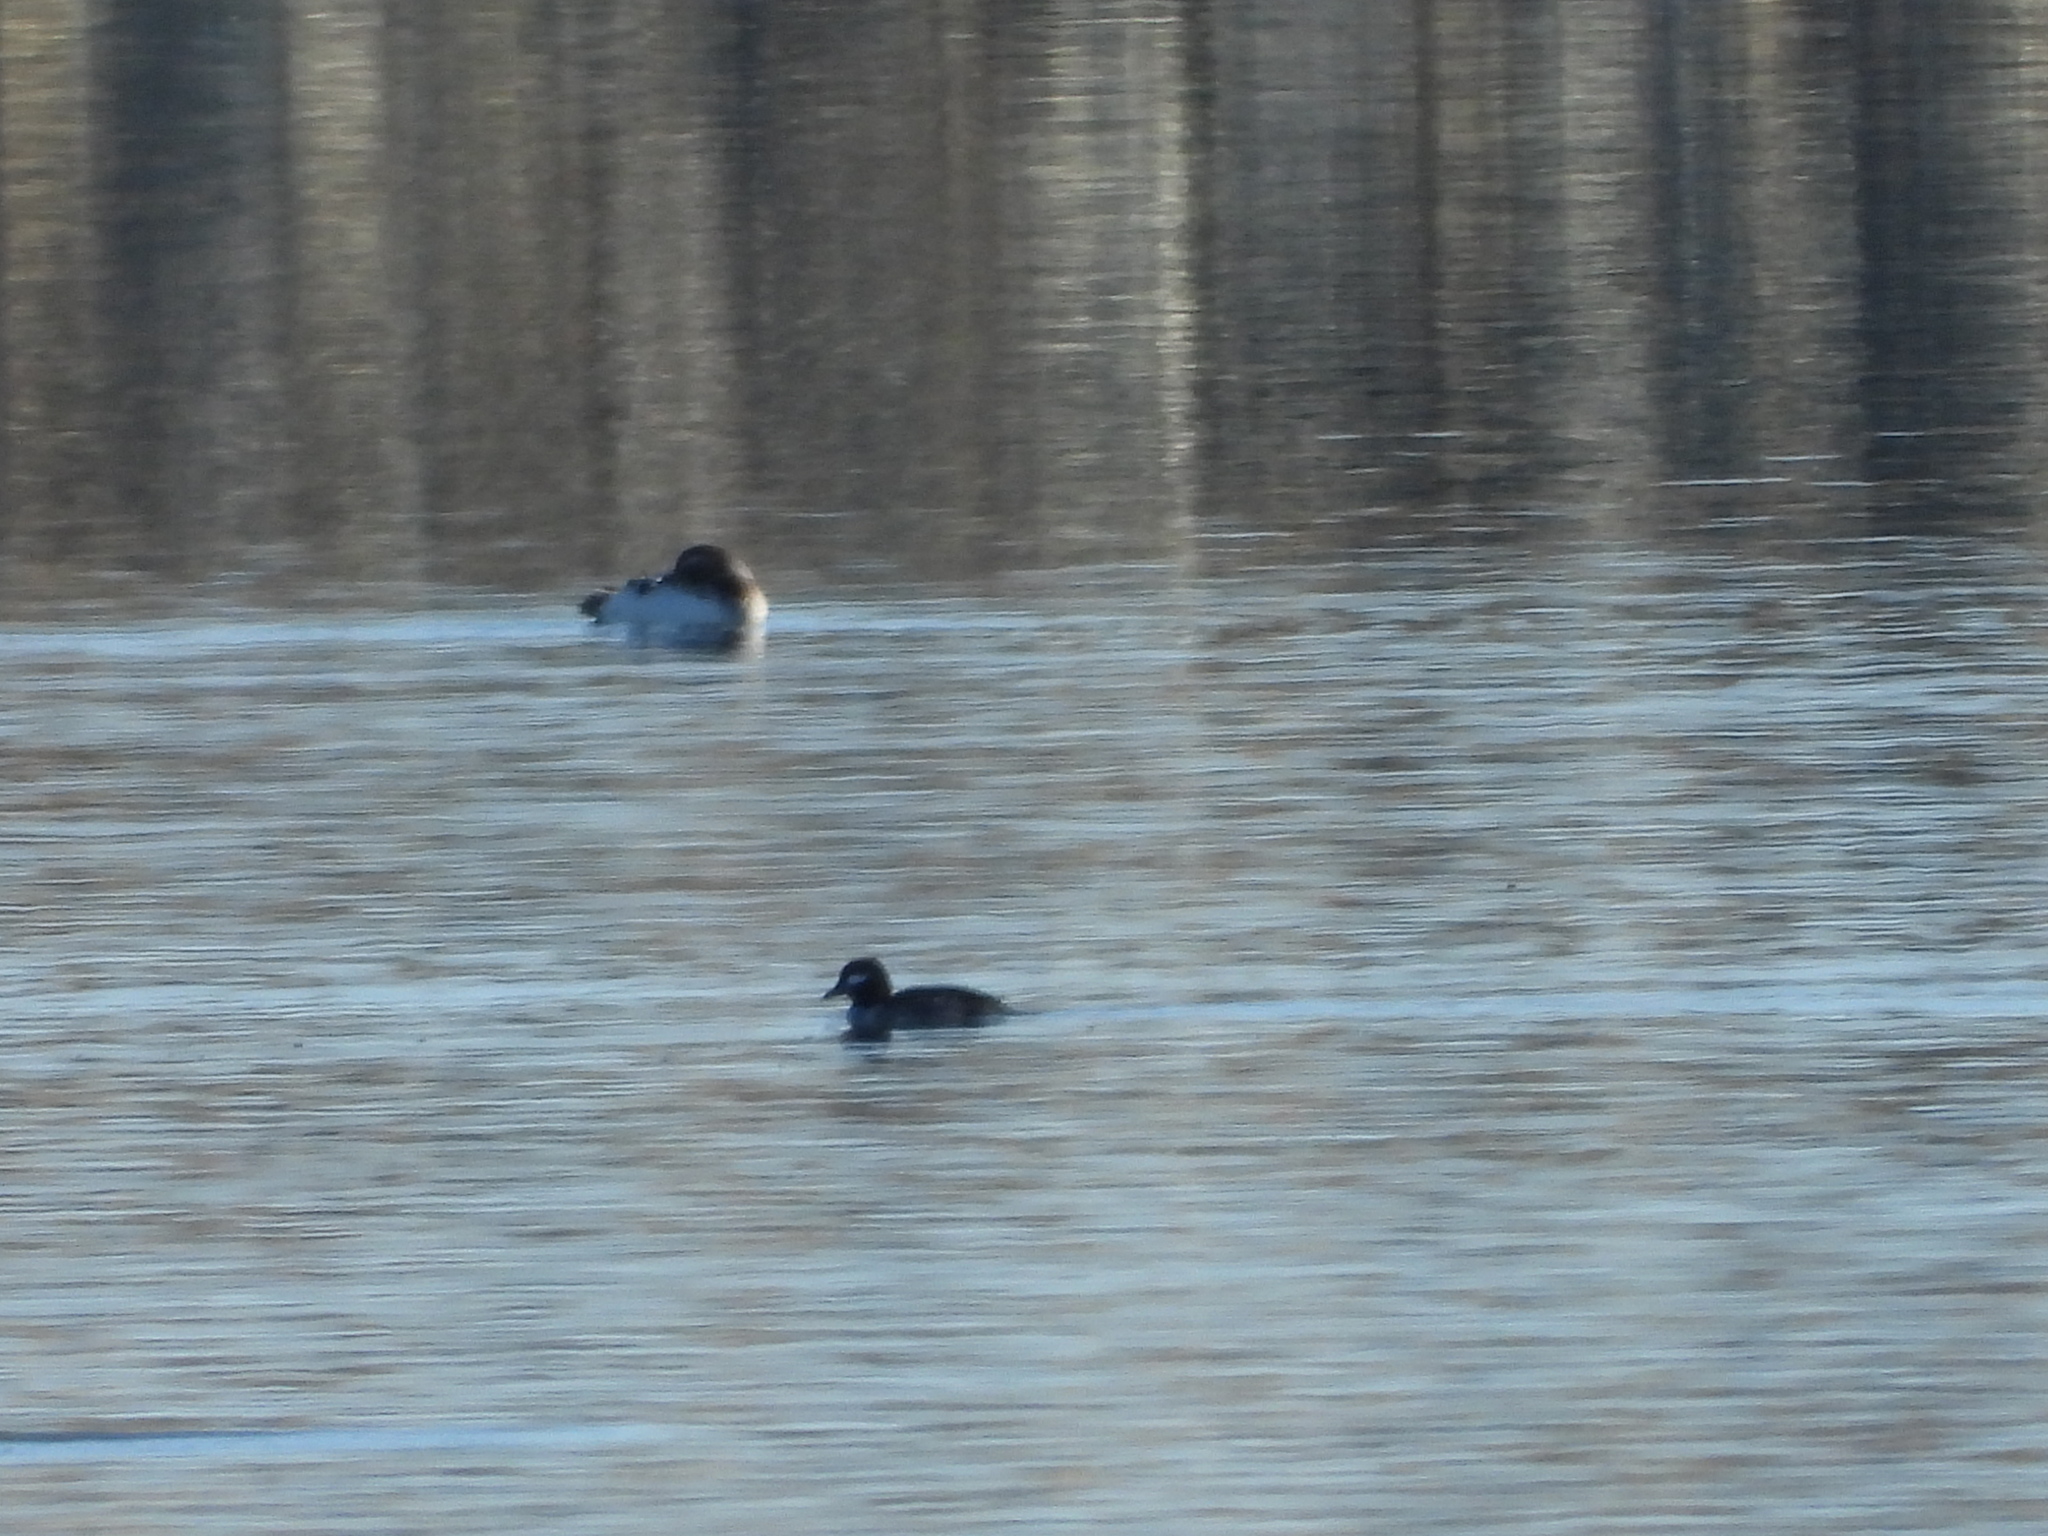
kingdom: Animalia
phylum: Chordata
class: Aves
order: Anseriformes
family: Anatidae
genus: Bucephala
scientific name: Bucephala albeola
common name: Bufflehead
